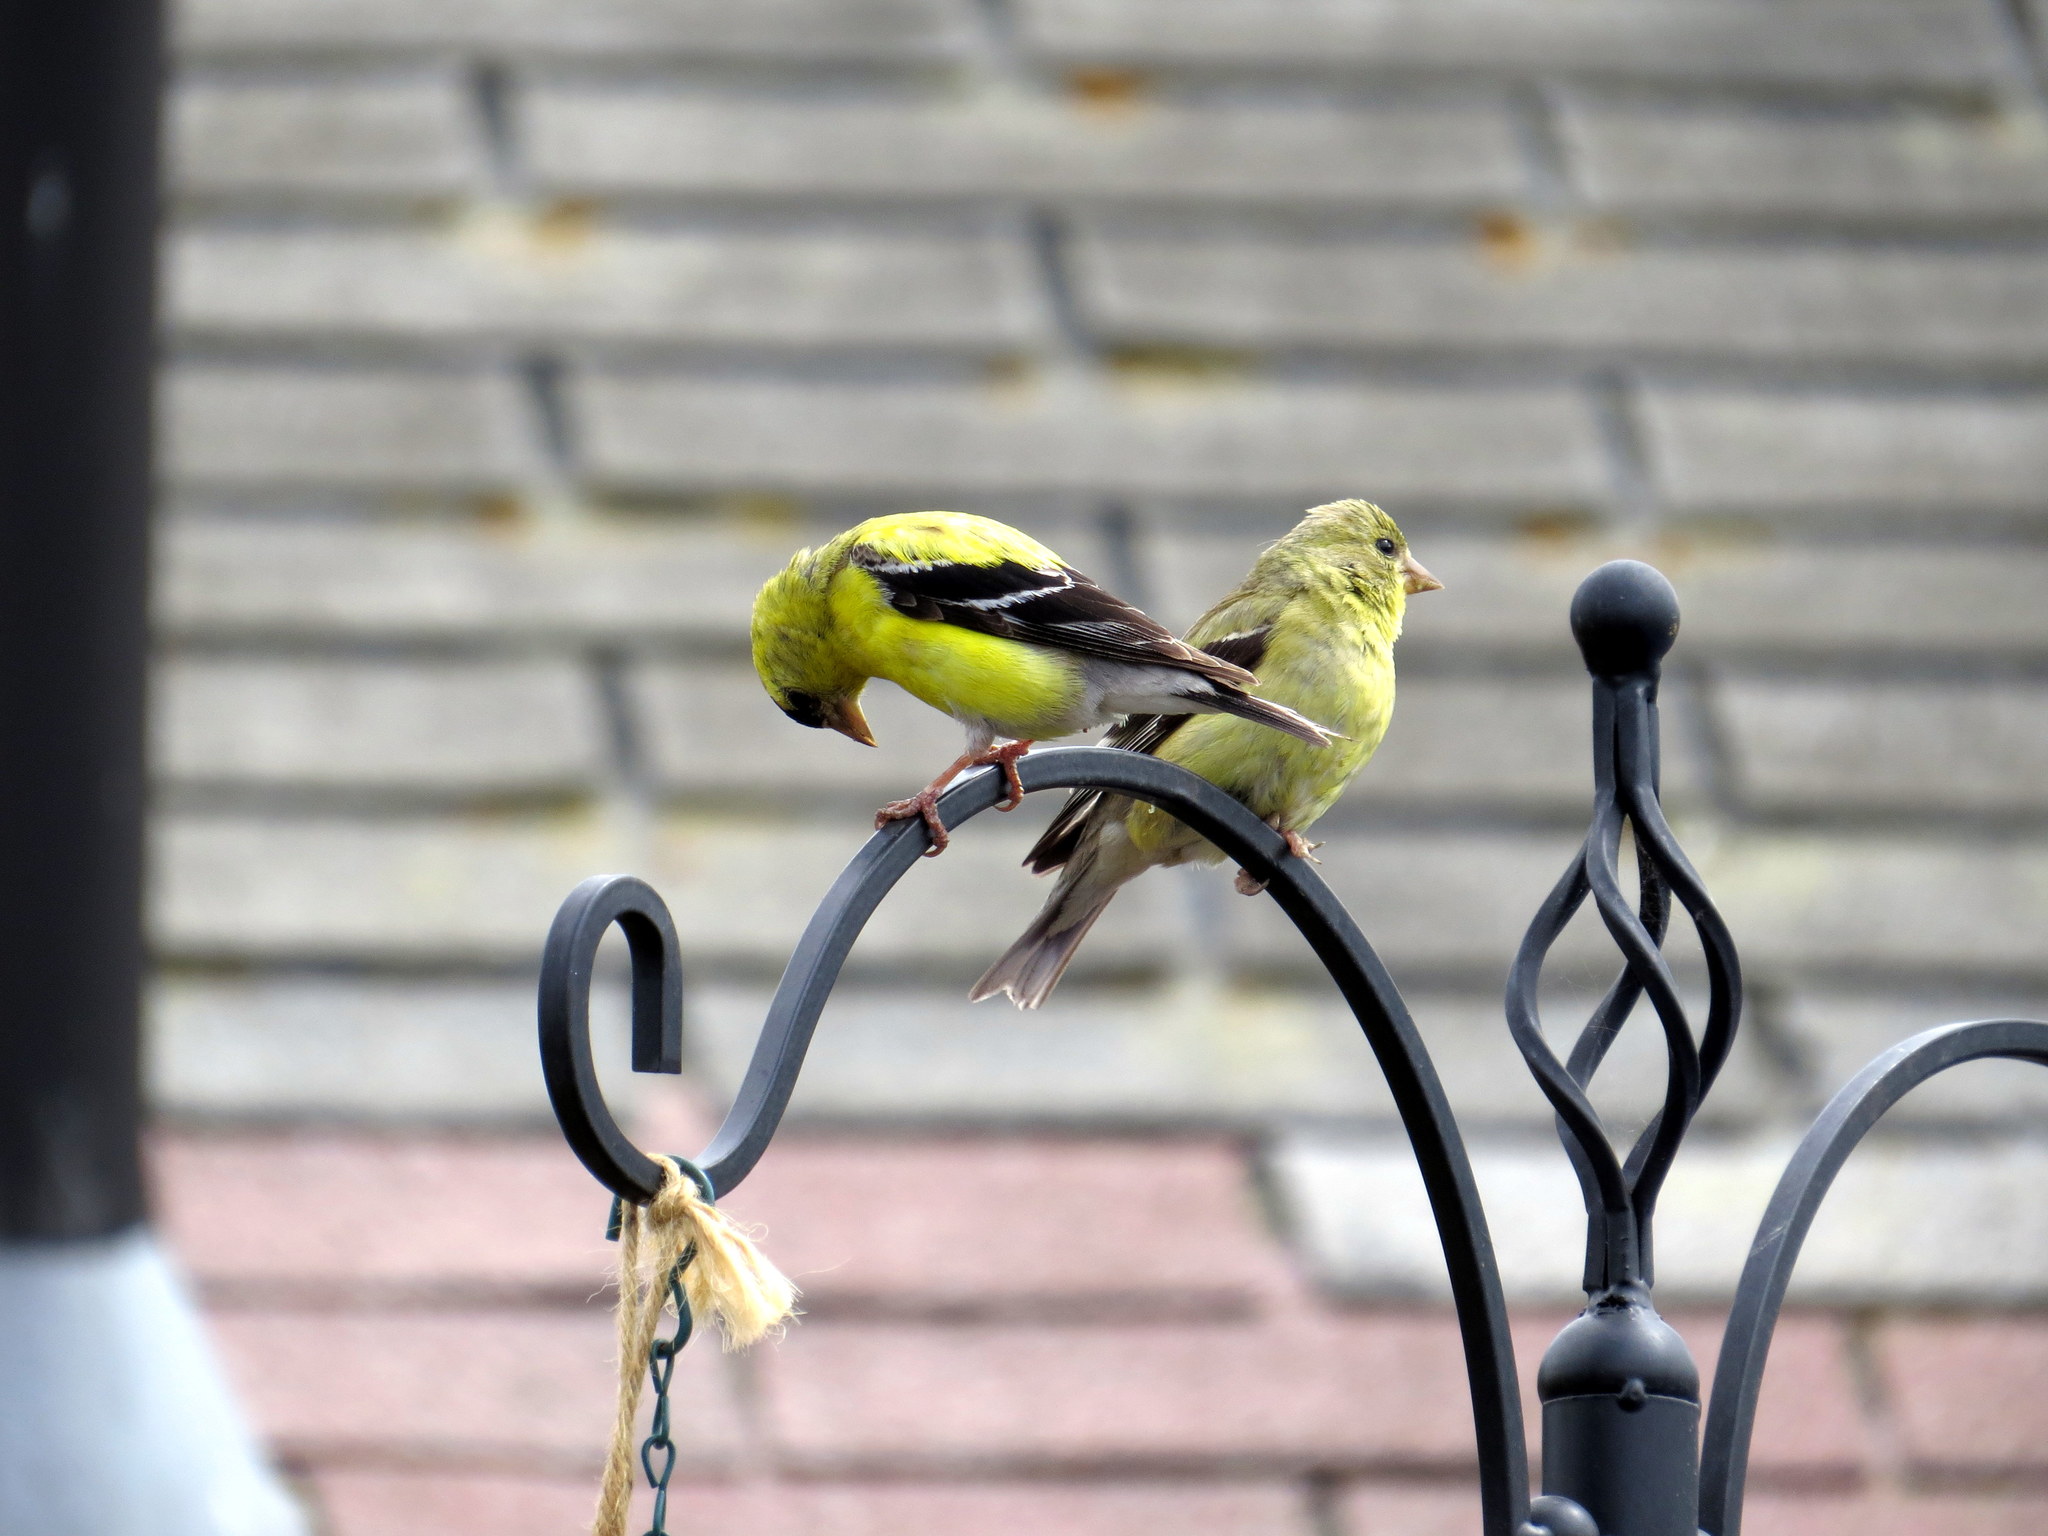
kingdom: Animalia
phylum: Chordata
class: Aves
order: Passeriformes
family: Fringillidae
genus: Spinus
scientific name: Spinus tristis
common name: American goldfinch
